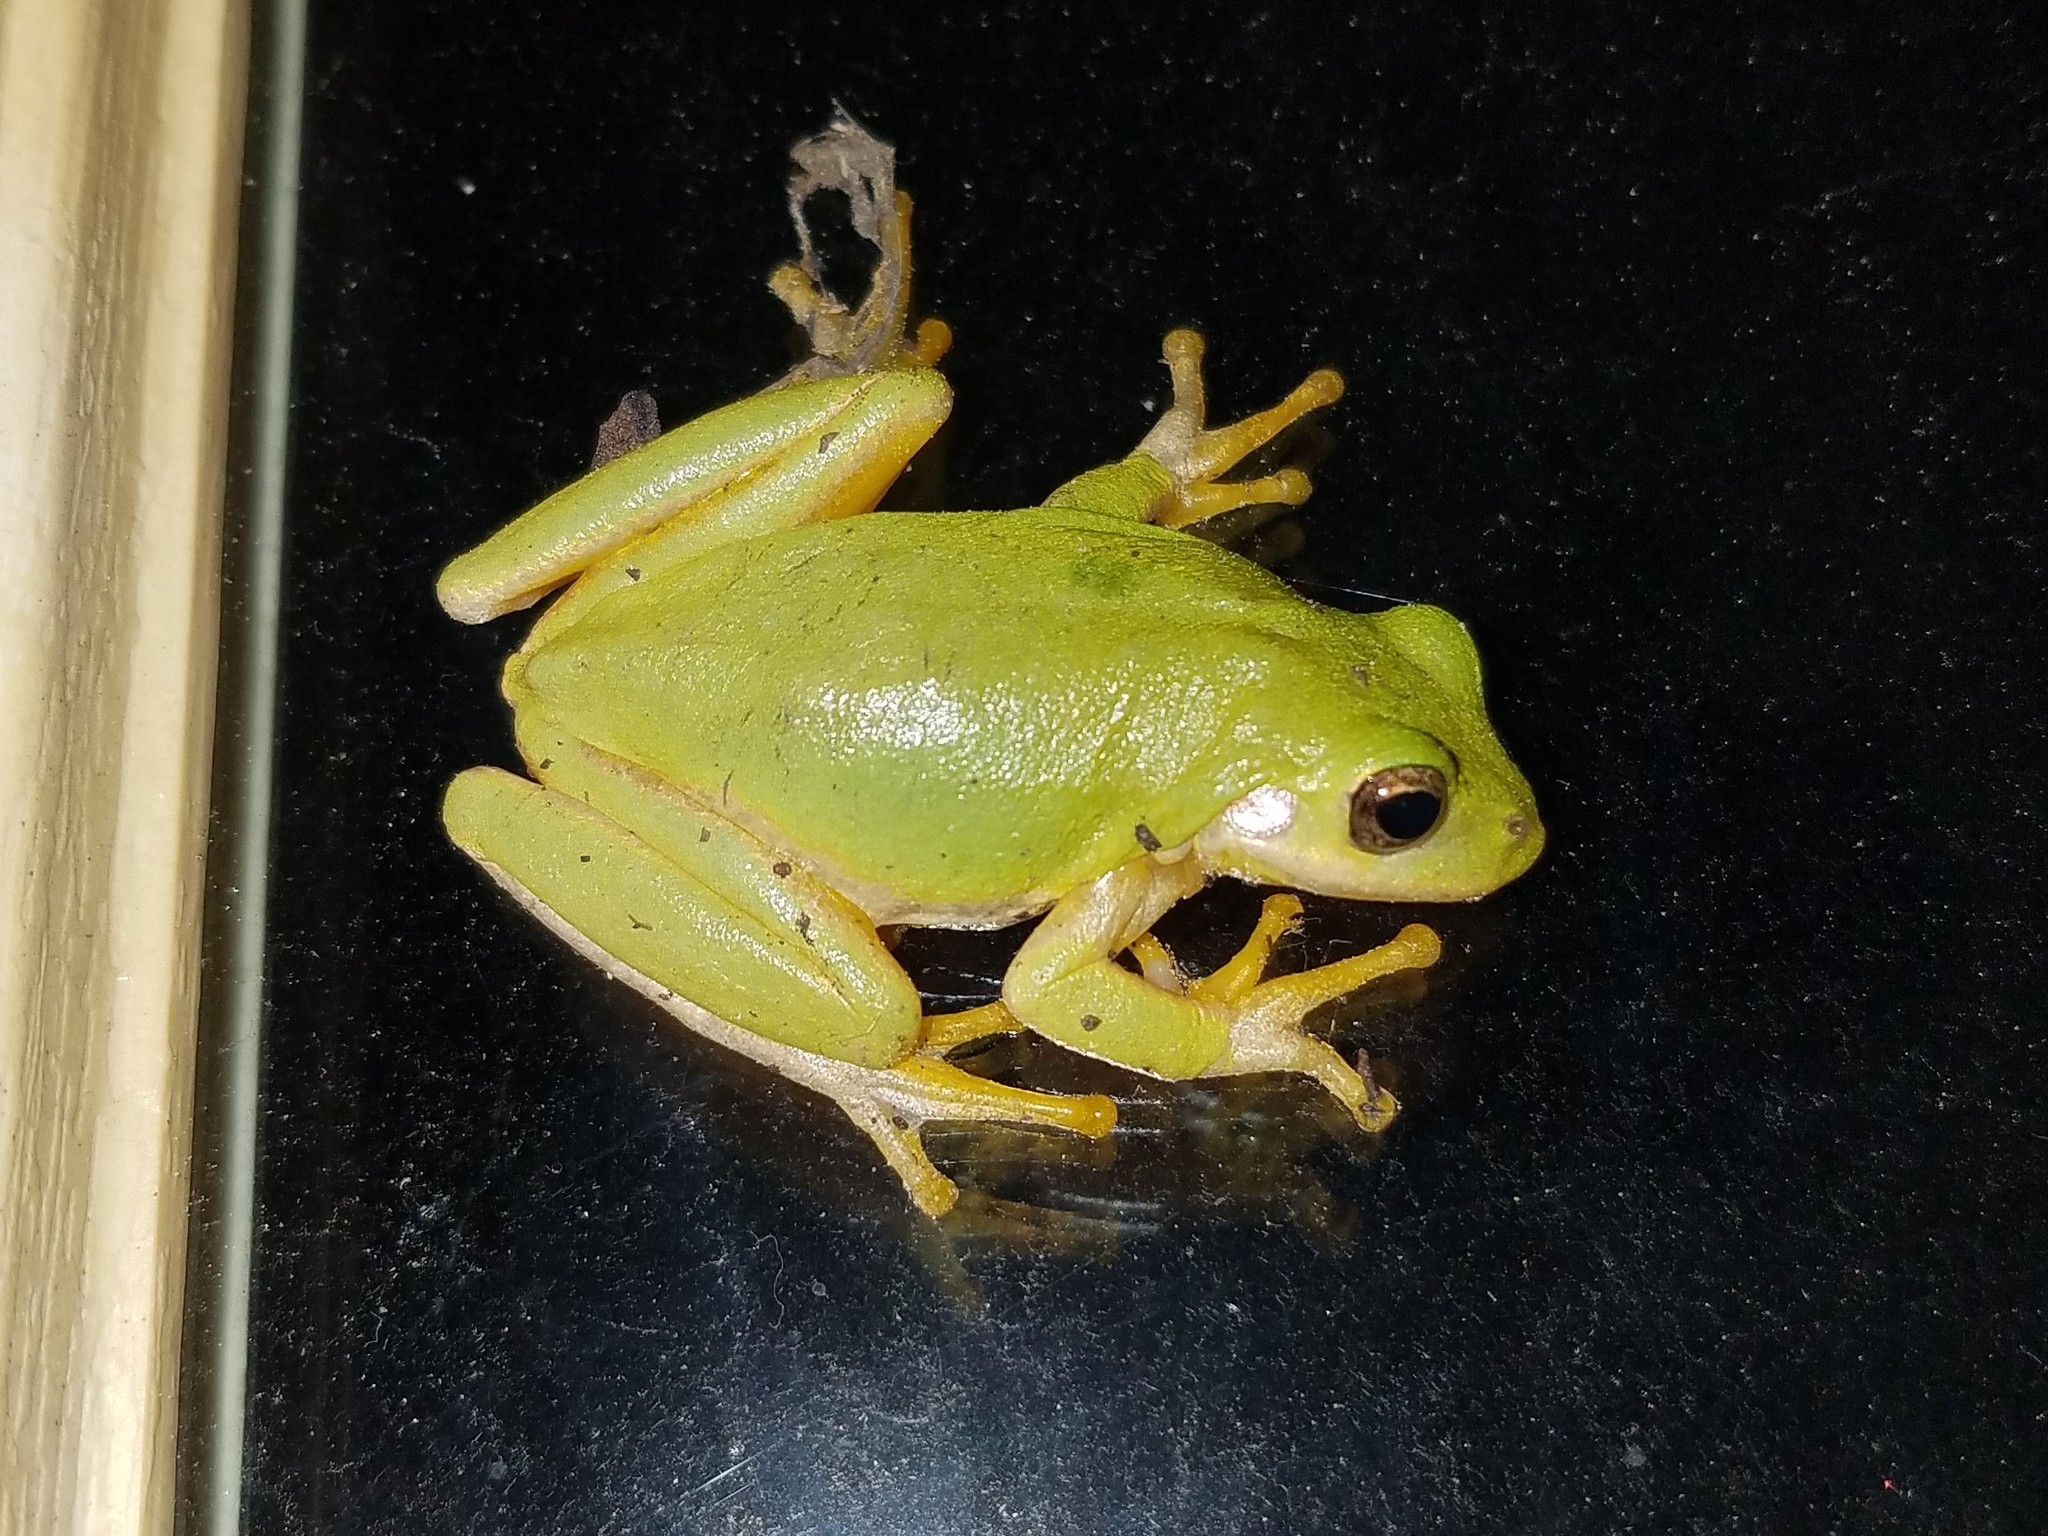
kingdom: Animalia
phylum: Chordata
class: Amphibia
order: Anura
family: Hylidae
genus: Dryophytes
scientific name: Dryophytes squirellus
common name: Squirrel treefrog
